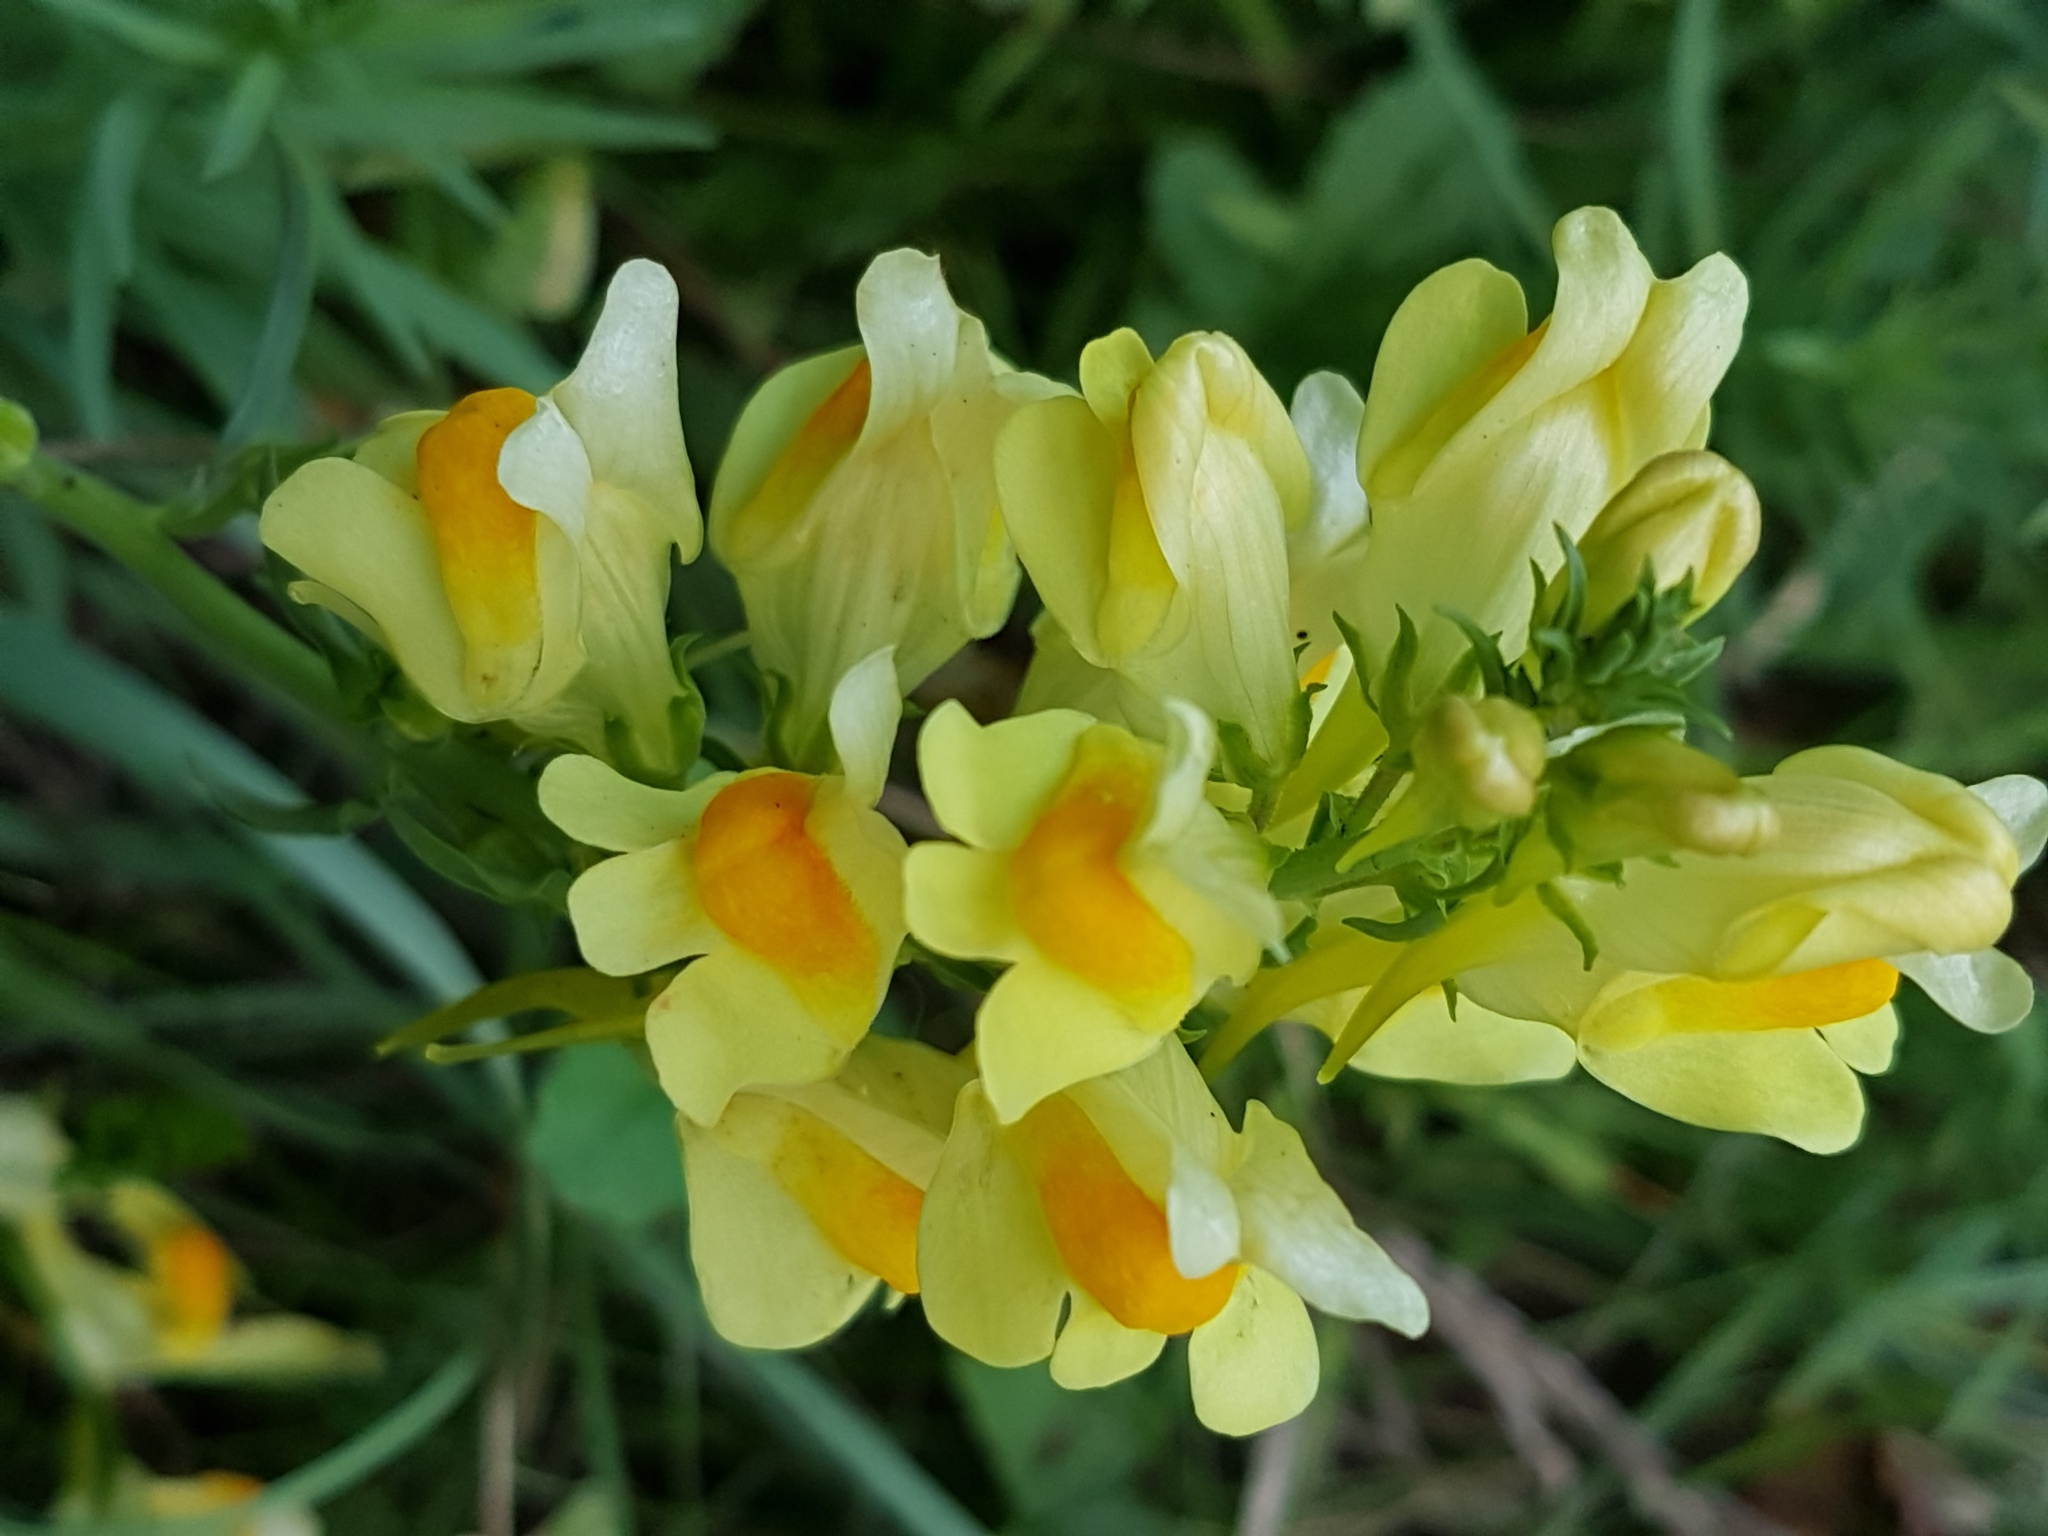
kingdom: Plantae
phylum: Tracheophyta
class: Magnoliopsida
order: Lamiales
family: Plantaginaceae
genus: Linaria
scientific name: Linaria vulgaris
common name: Butter and eggs
